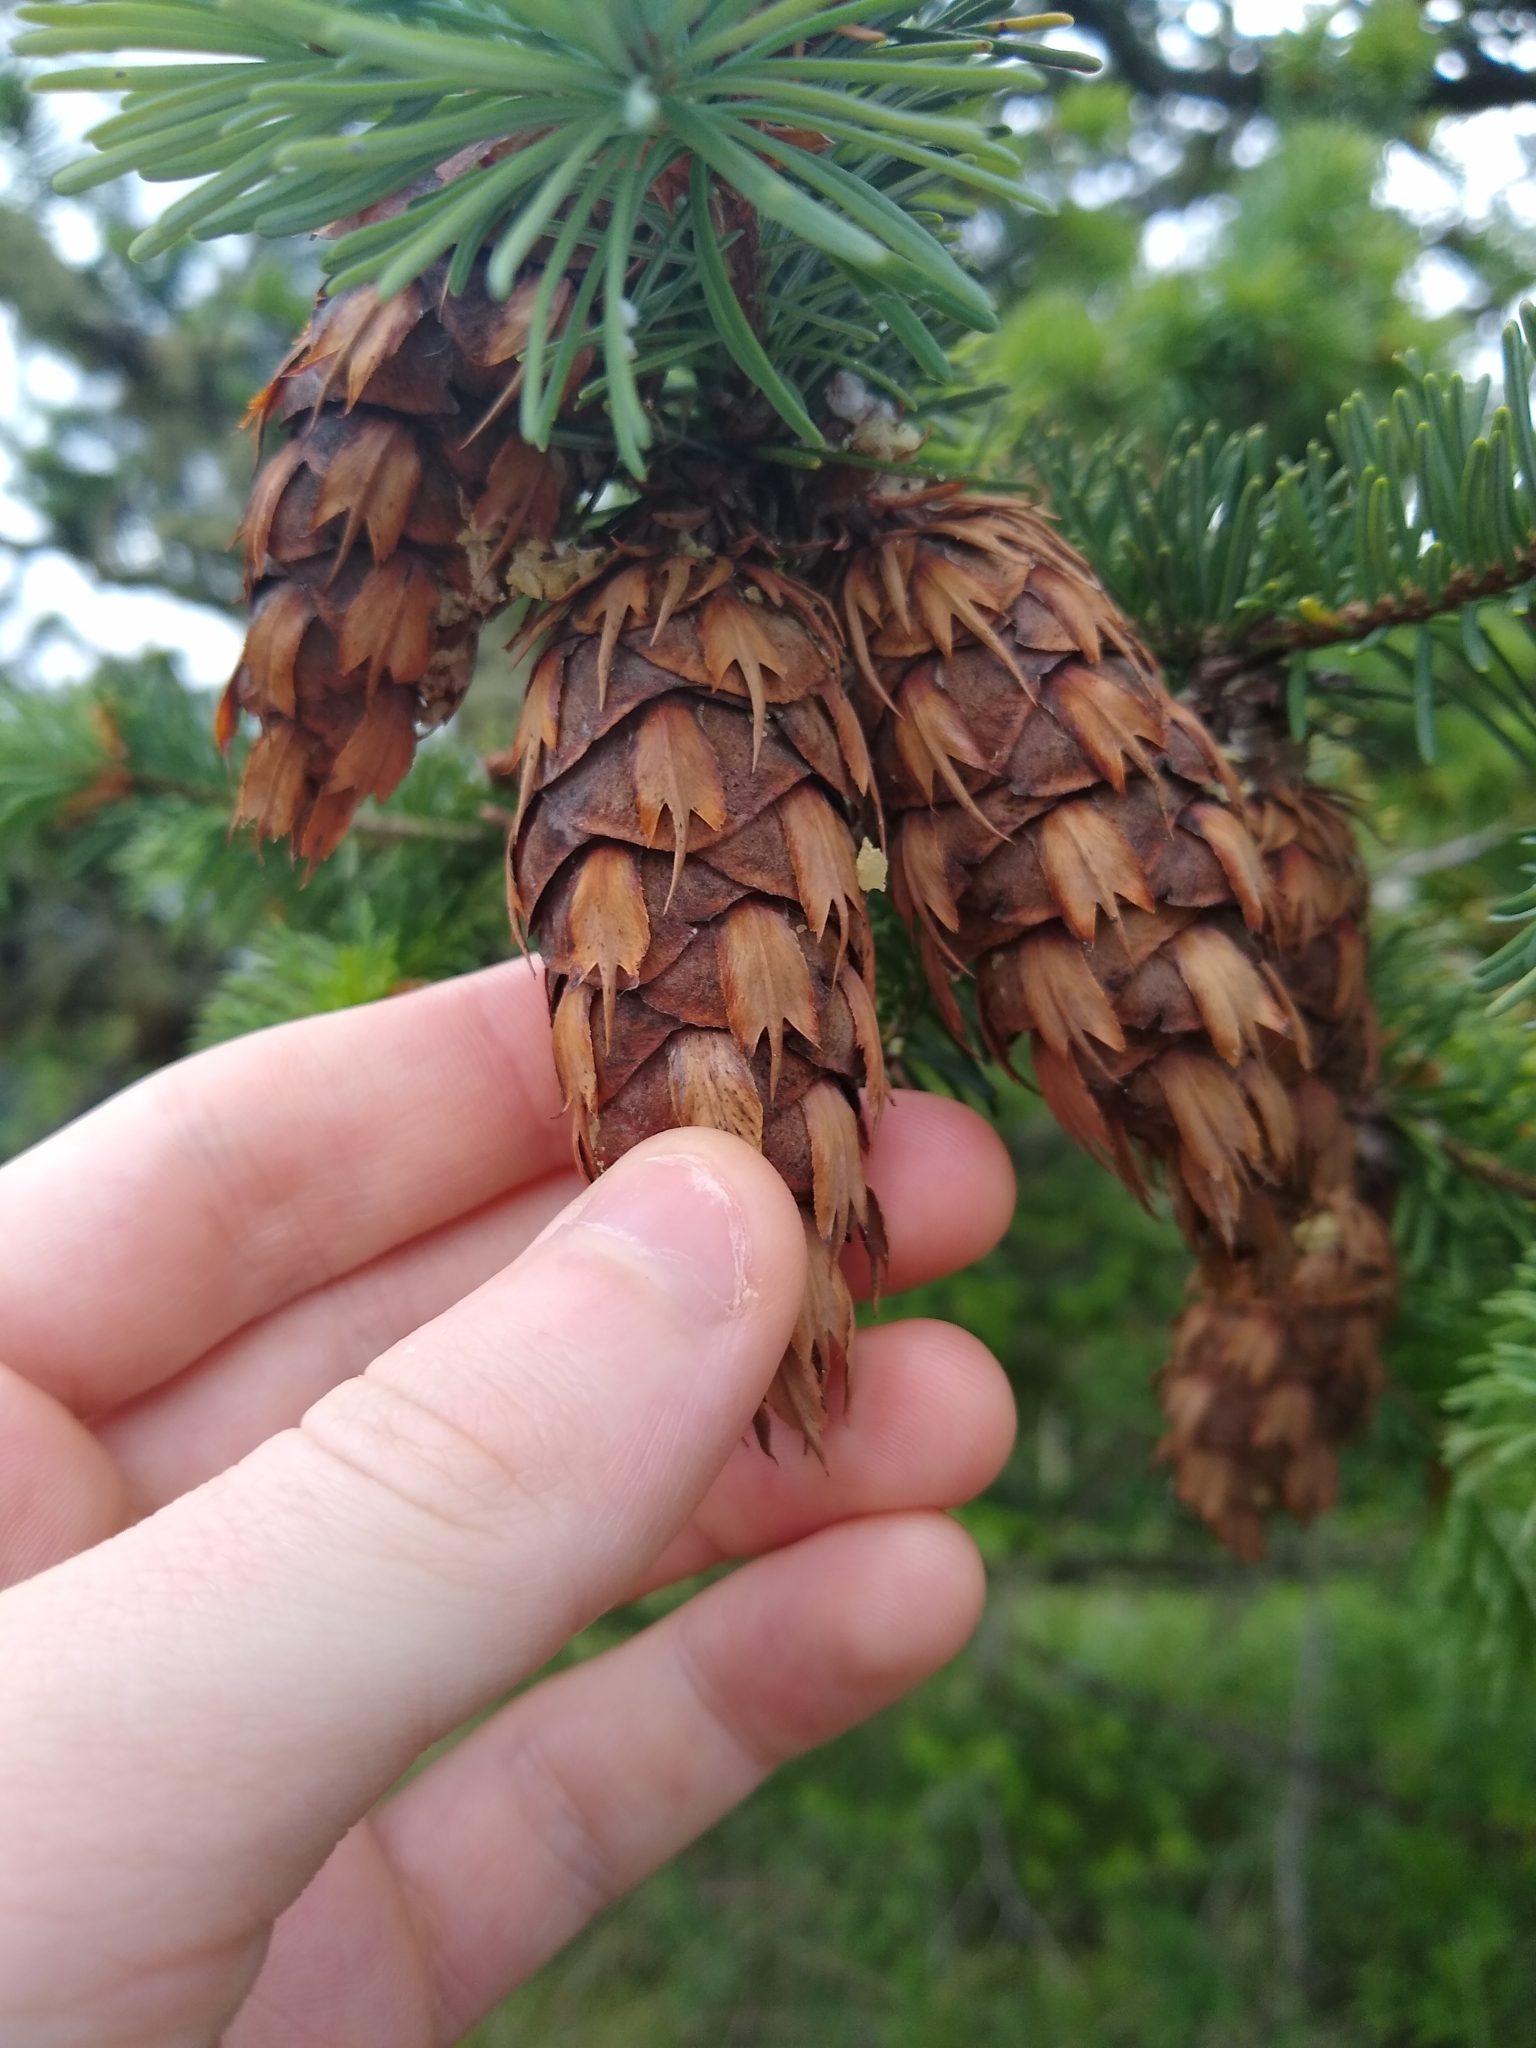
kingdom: Plantae
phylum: Tracheophyta
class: Pinopsida
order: Pinales
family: Pinaceae
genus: Pseudotsuga
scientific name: Pseudotsuga menziesii
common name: Douglas fir
